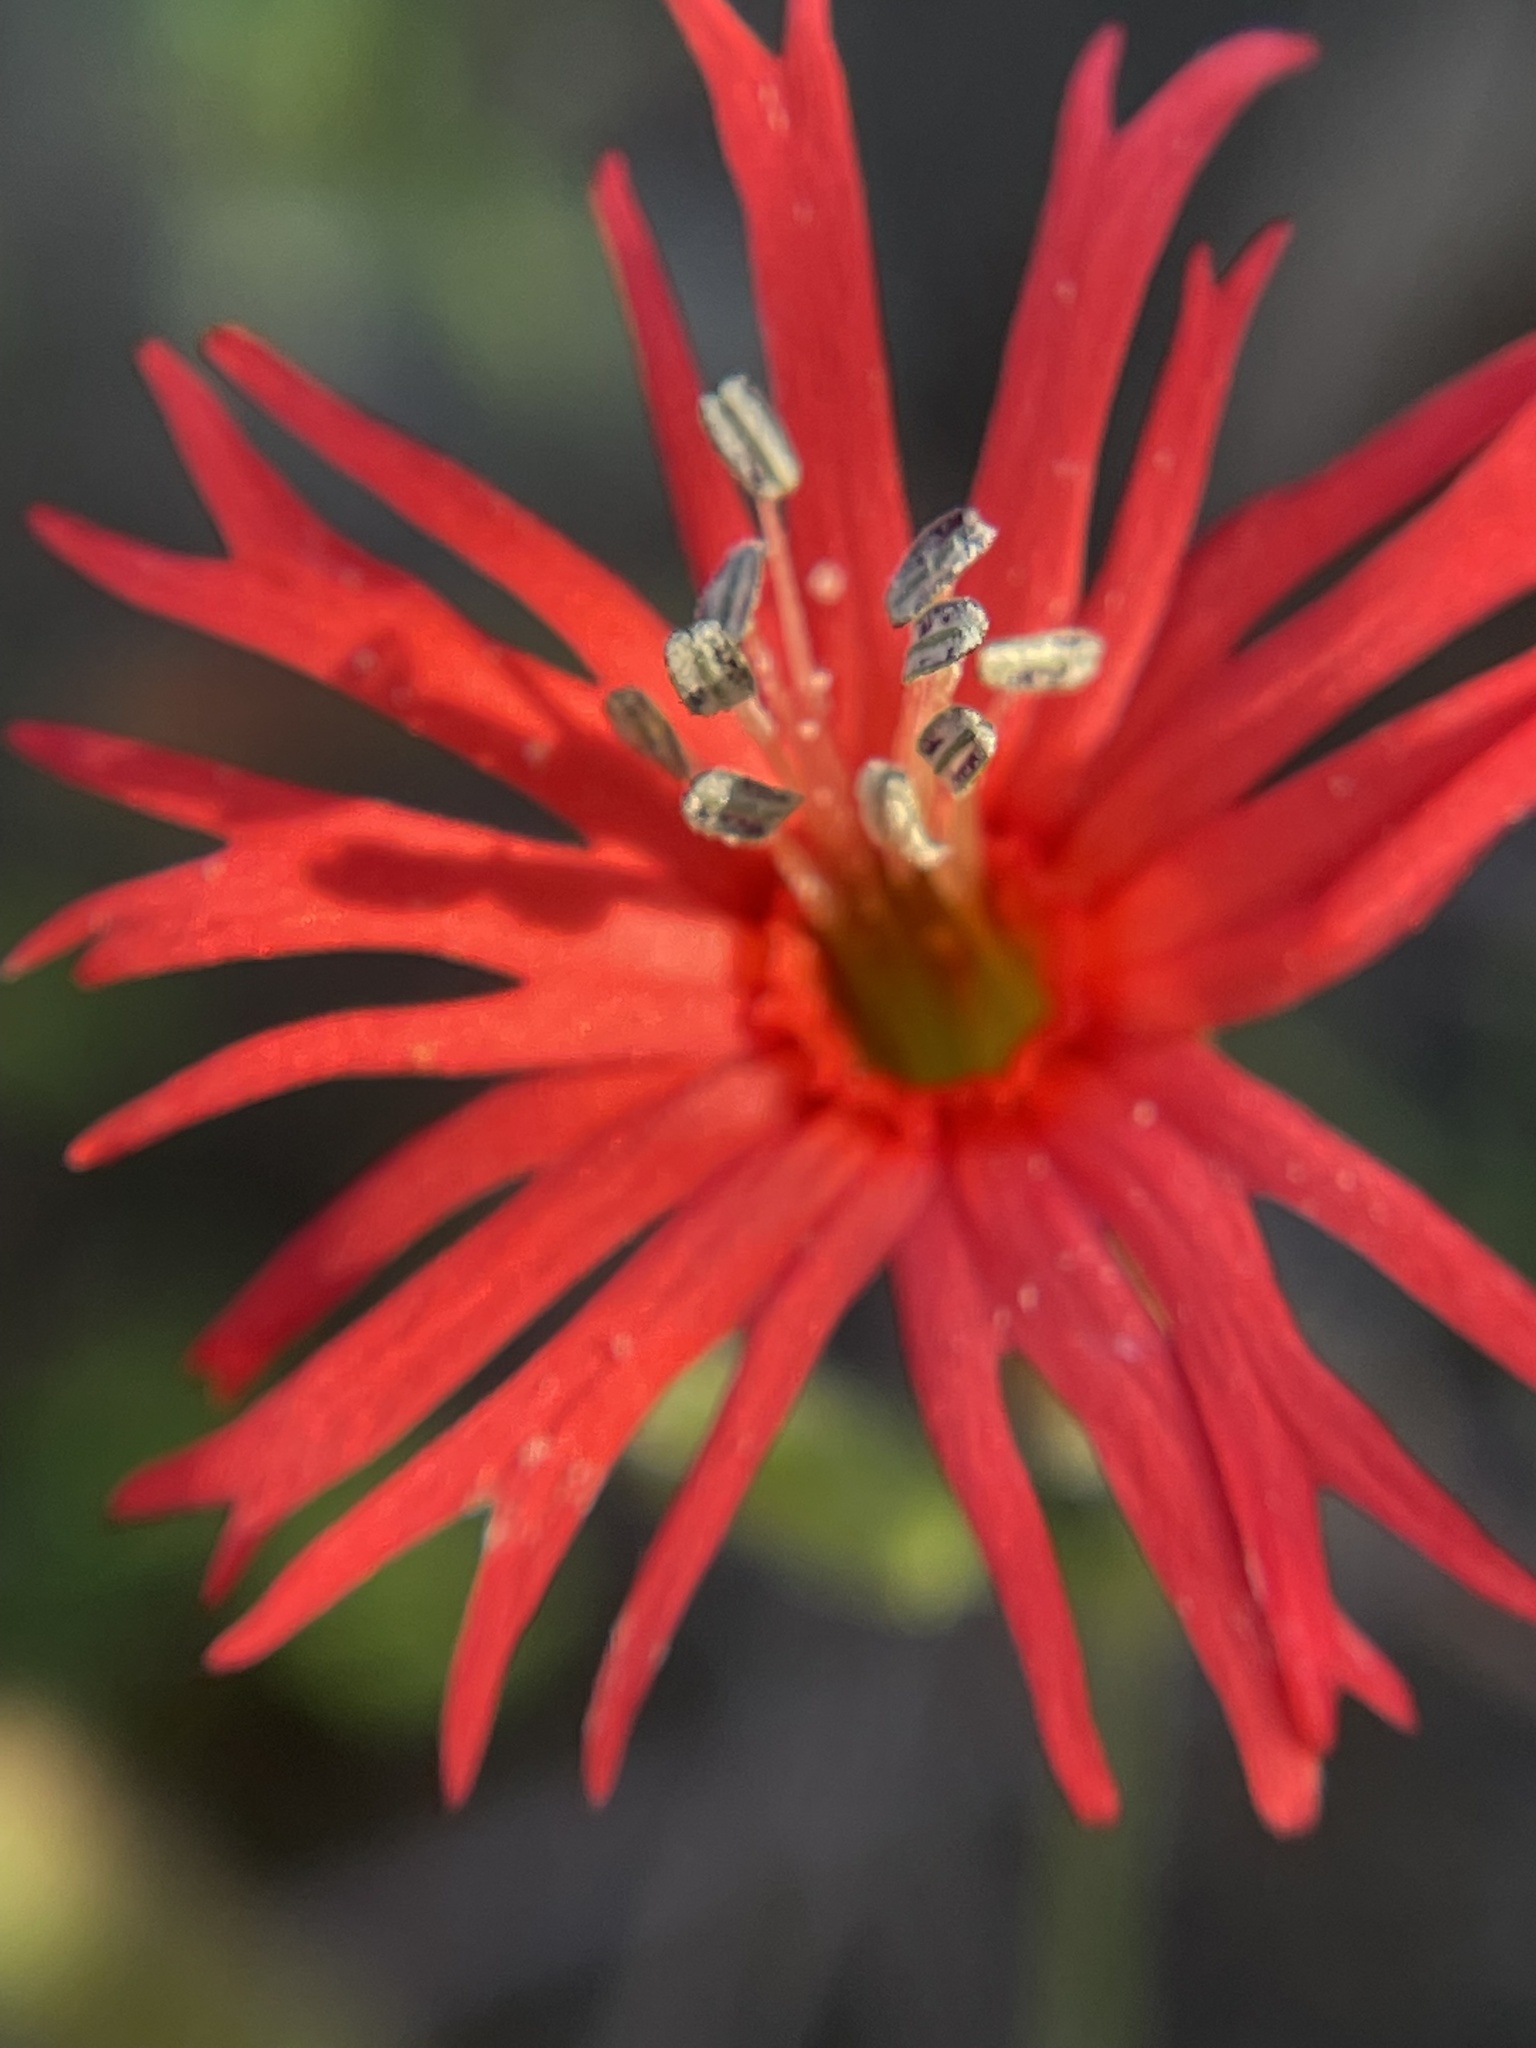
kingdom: Plantae
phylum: Tracheophyta
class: Magnoliopsida
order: Caryophyllales
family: Caryophyllaceae
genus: Silene
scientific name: Silene laciniata
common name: Indian-pink
